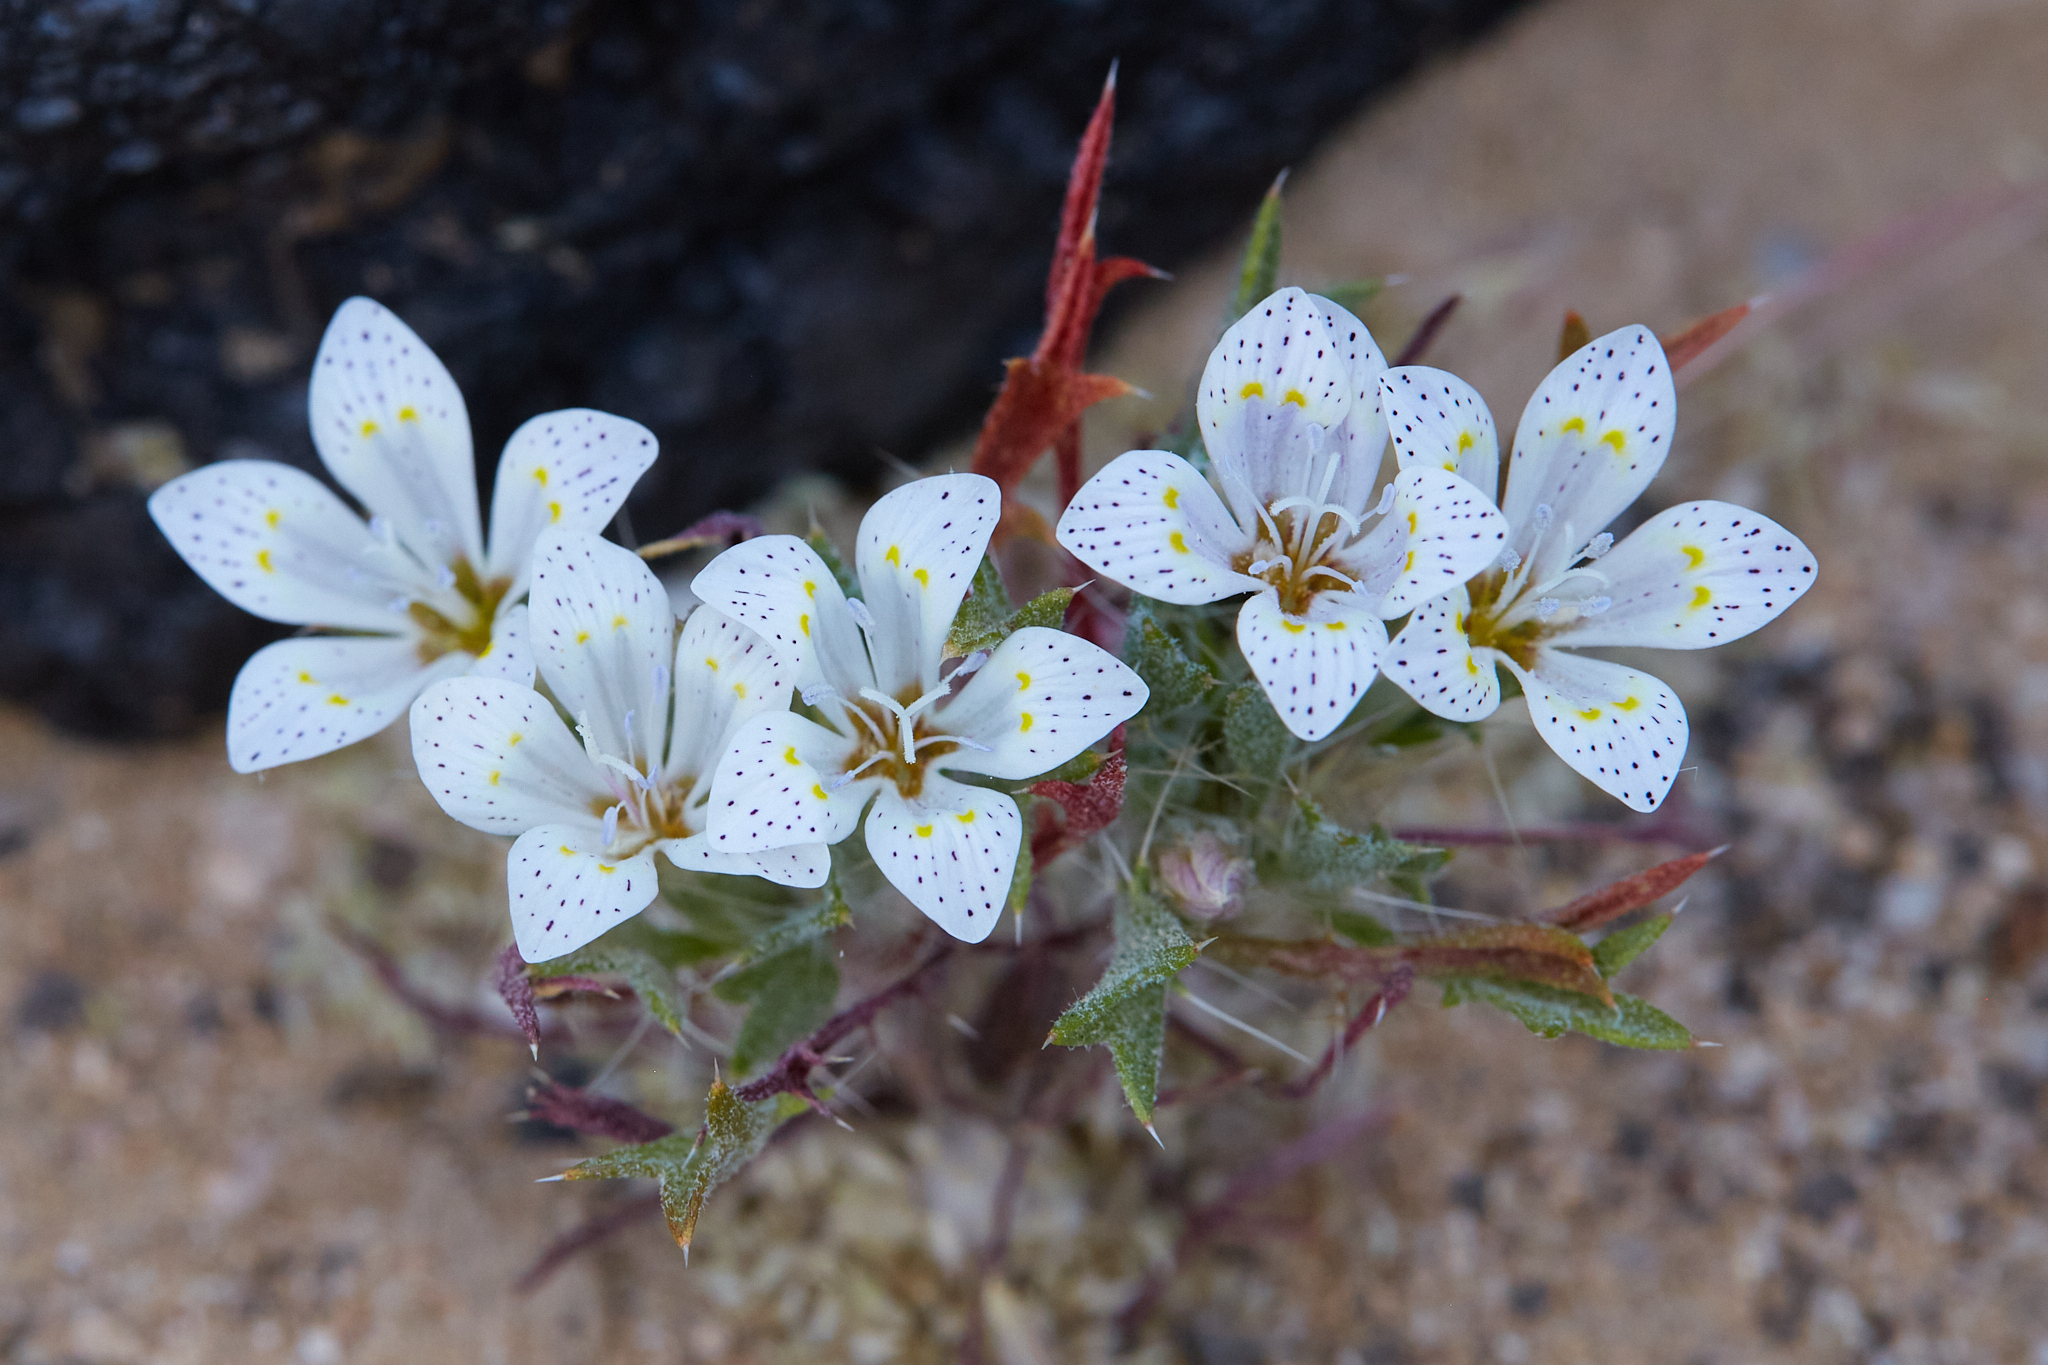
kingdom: Plantae
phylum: Tracheophyta
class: Magnoliopsida
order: Ericales
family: Polemoniaceae
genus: Langloisia
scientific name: Langloisia setosissima
